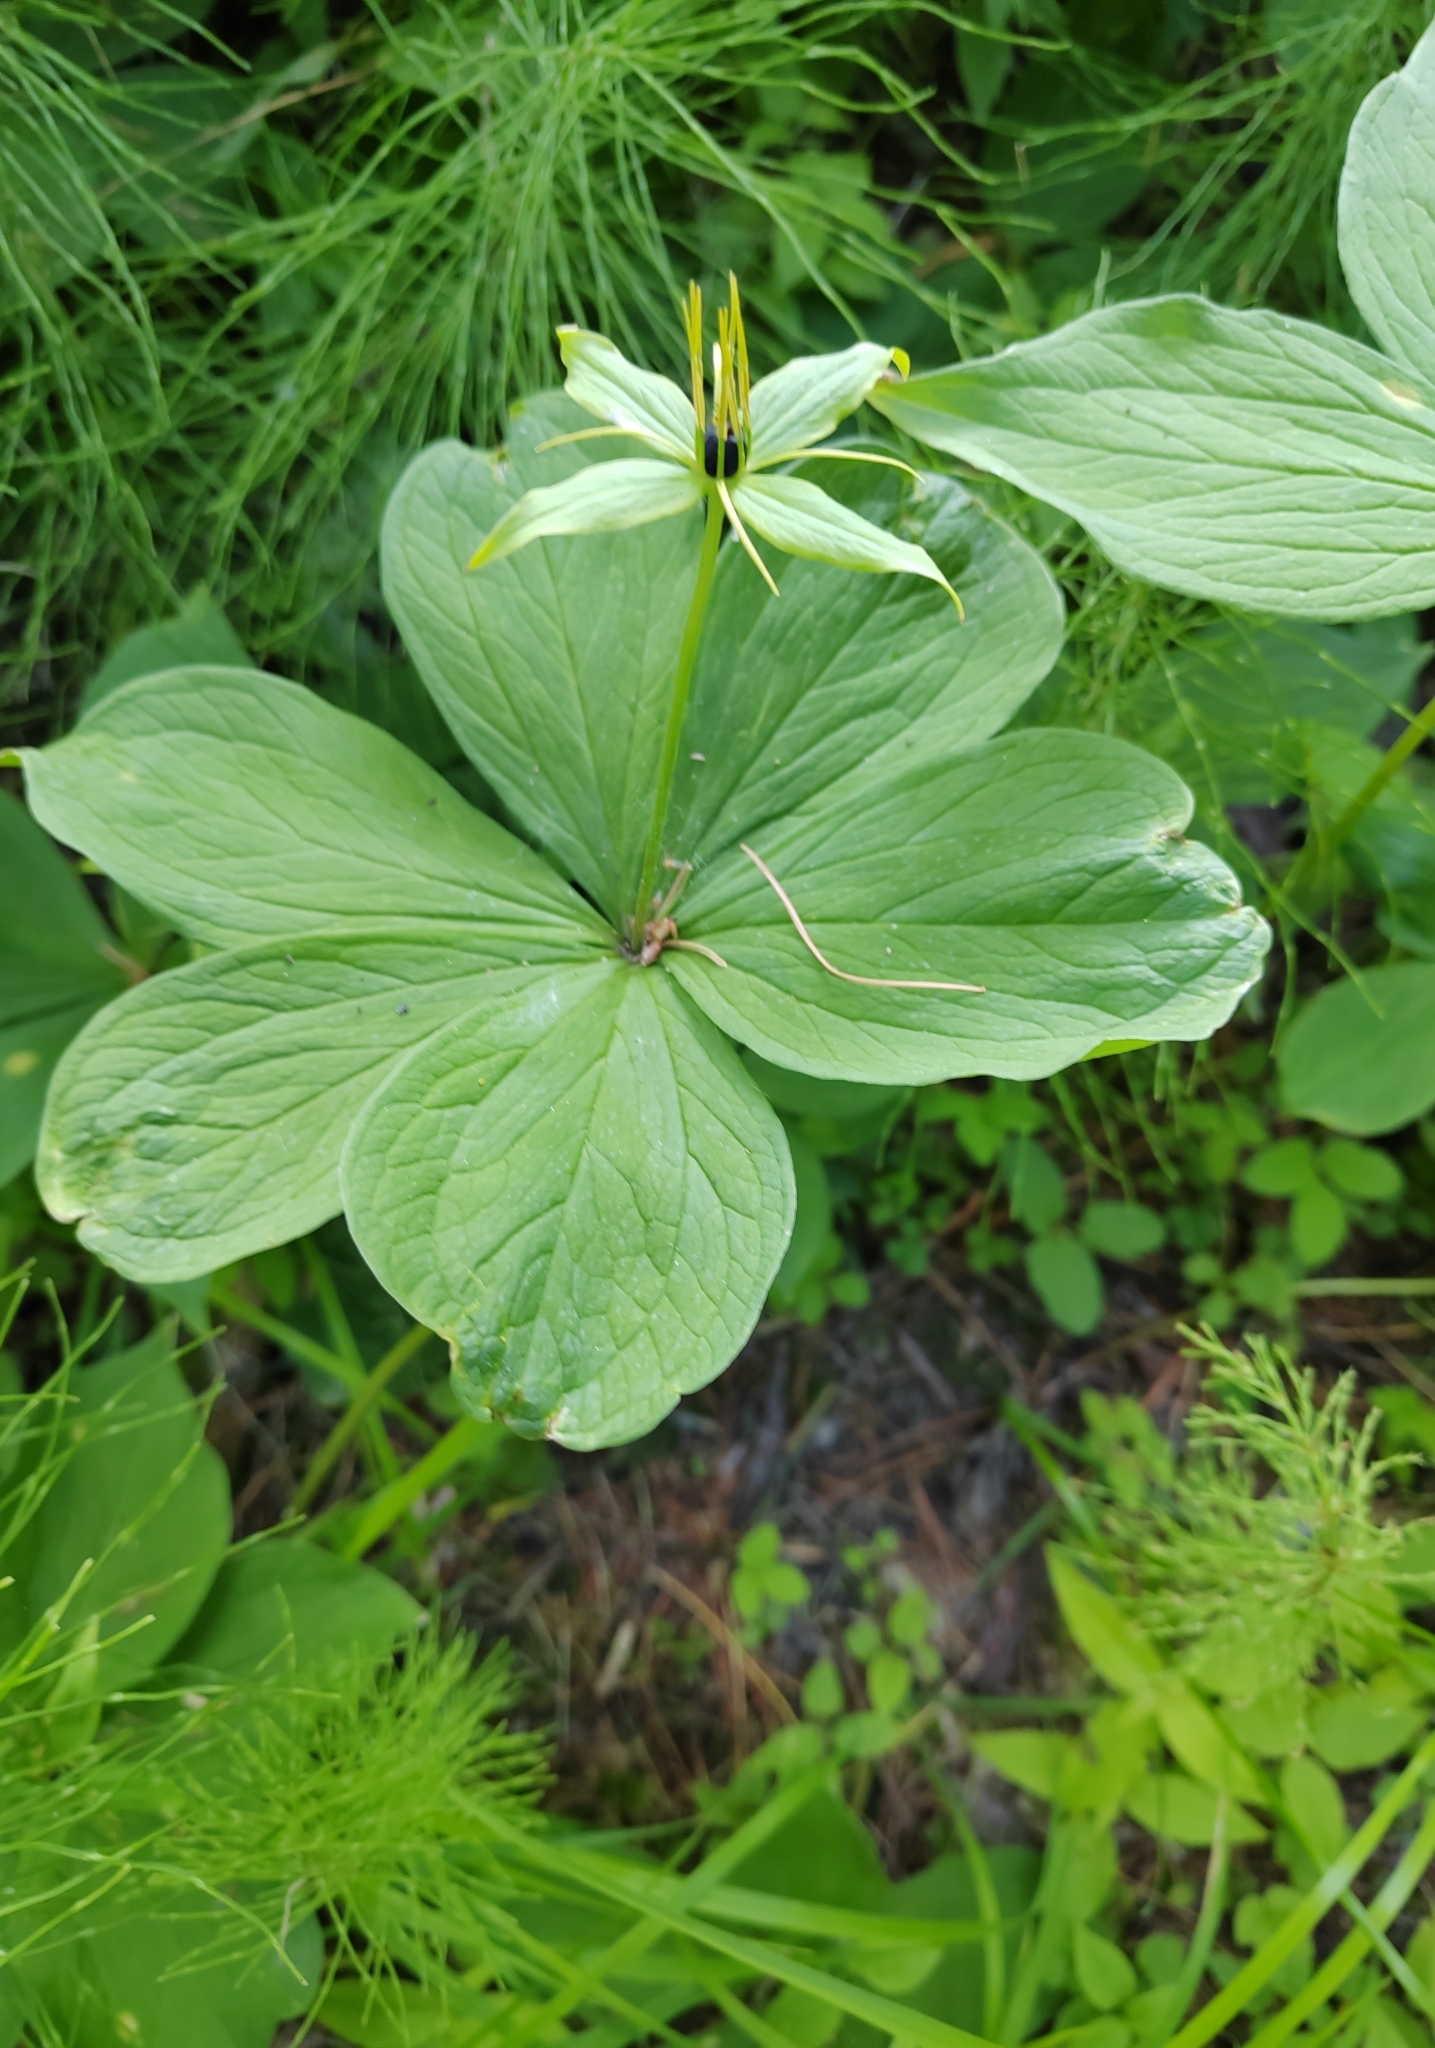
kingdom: Plantae
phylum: Tracheophyta
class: Liliopsida
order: Liliales
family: Melanthiaceae
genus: Paris
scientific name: Paris quadrifolia
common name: Herb-paris
